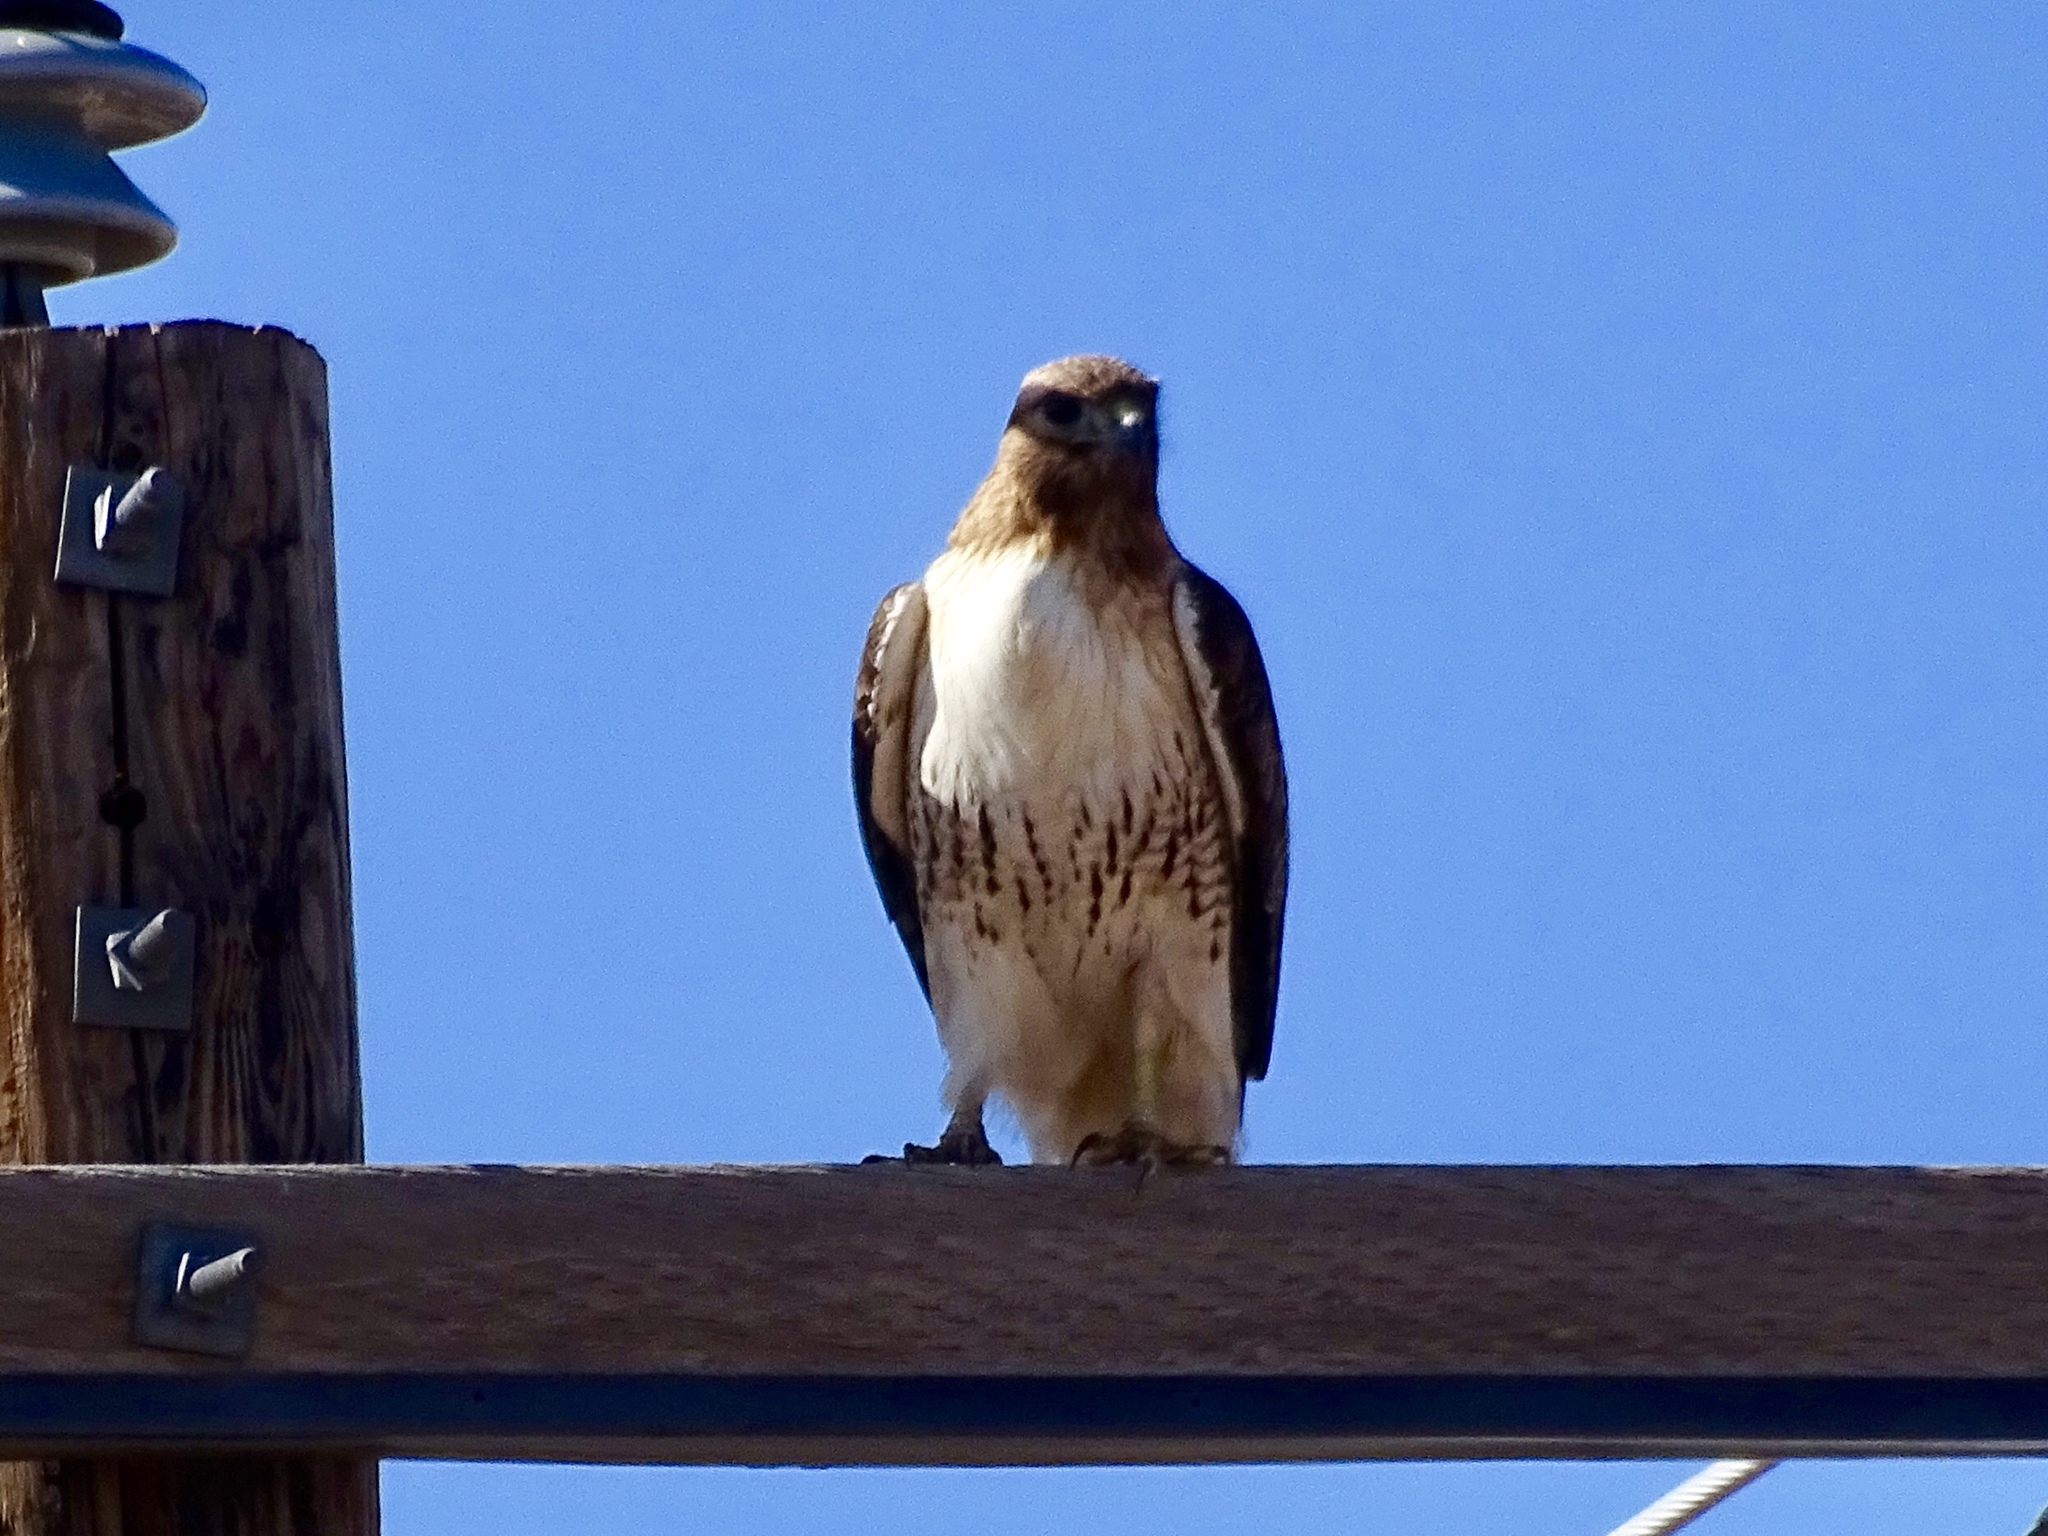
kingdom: Animalia
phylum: Chordata
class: Aves
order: Accipitriformes
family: Accipitridae
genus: Buteo
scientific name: Buteo jamaicensis
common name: Red-tailed hawk
